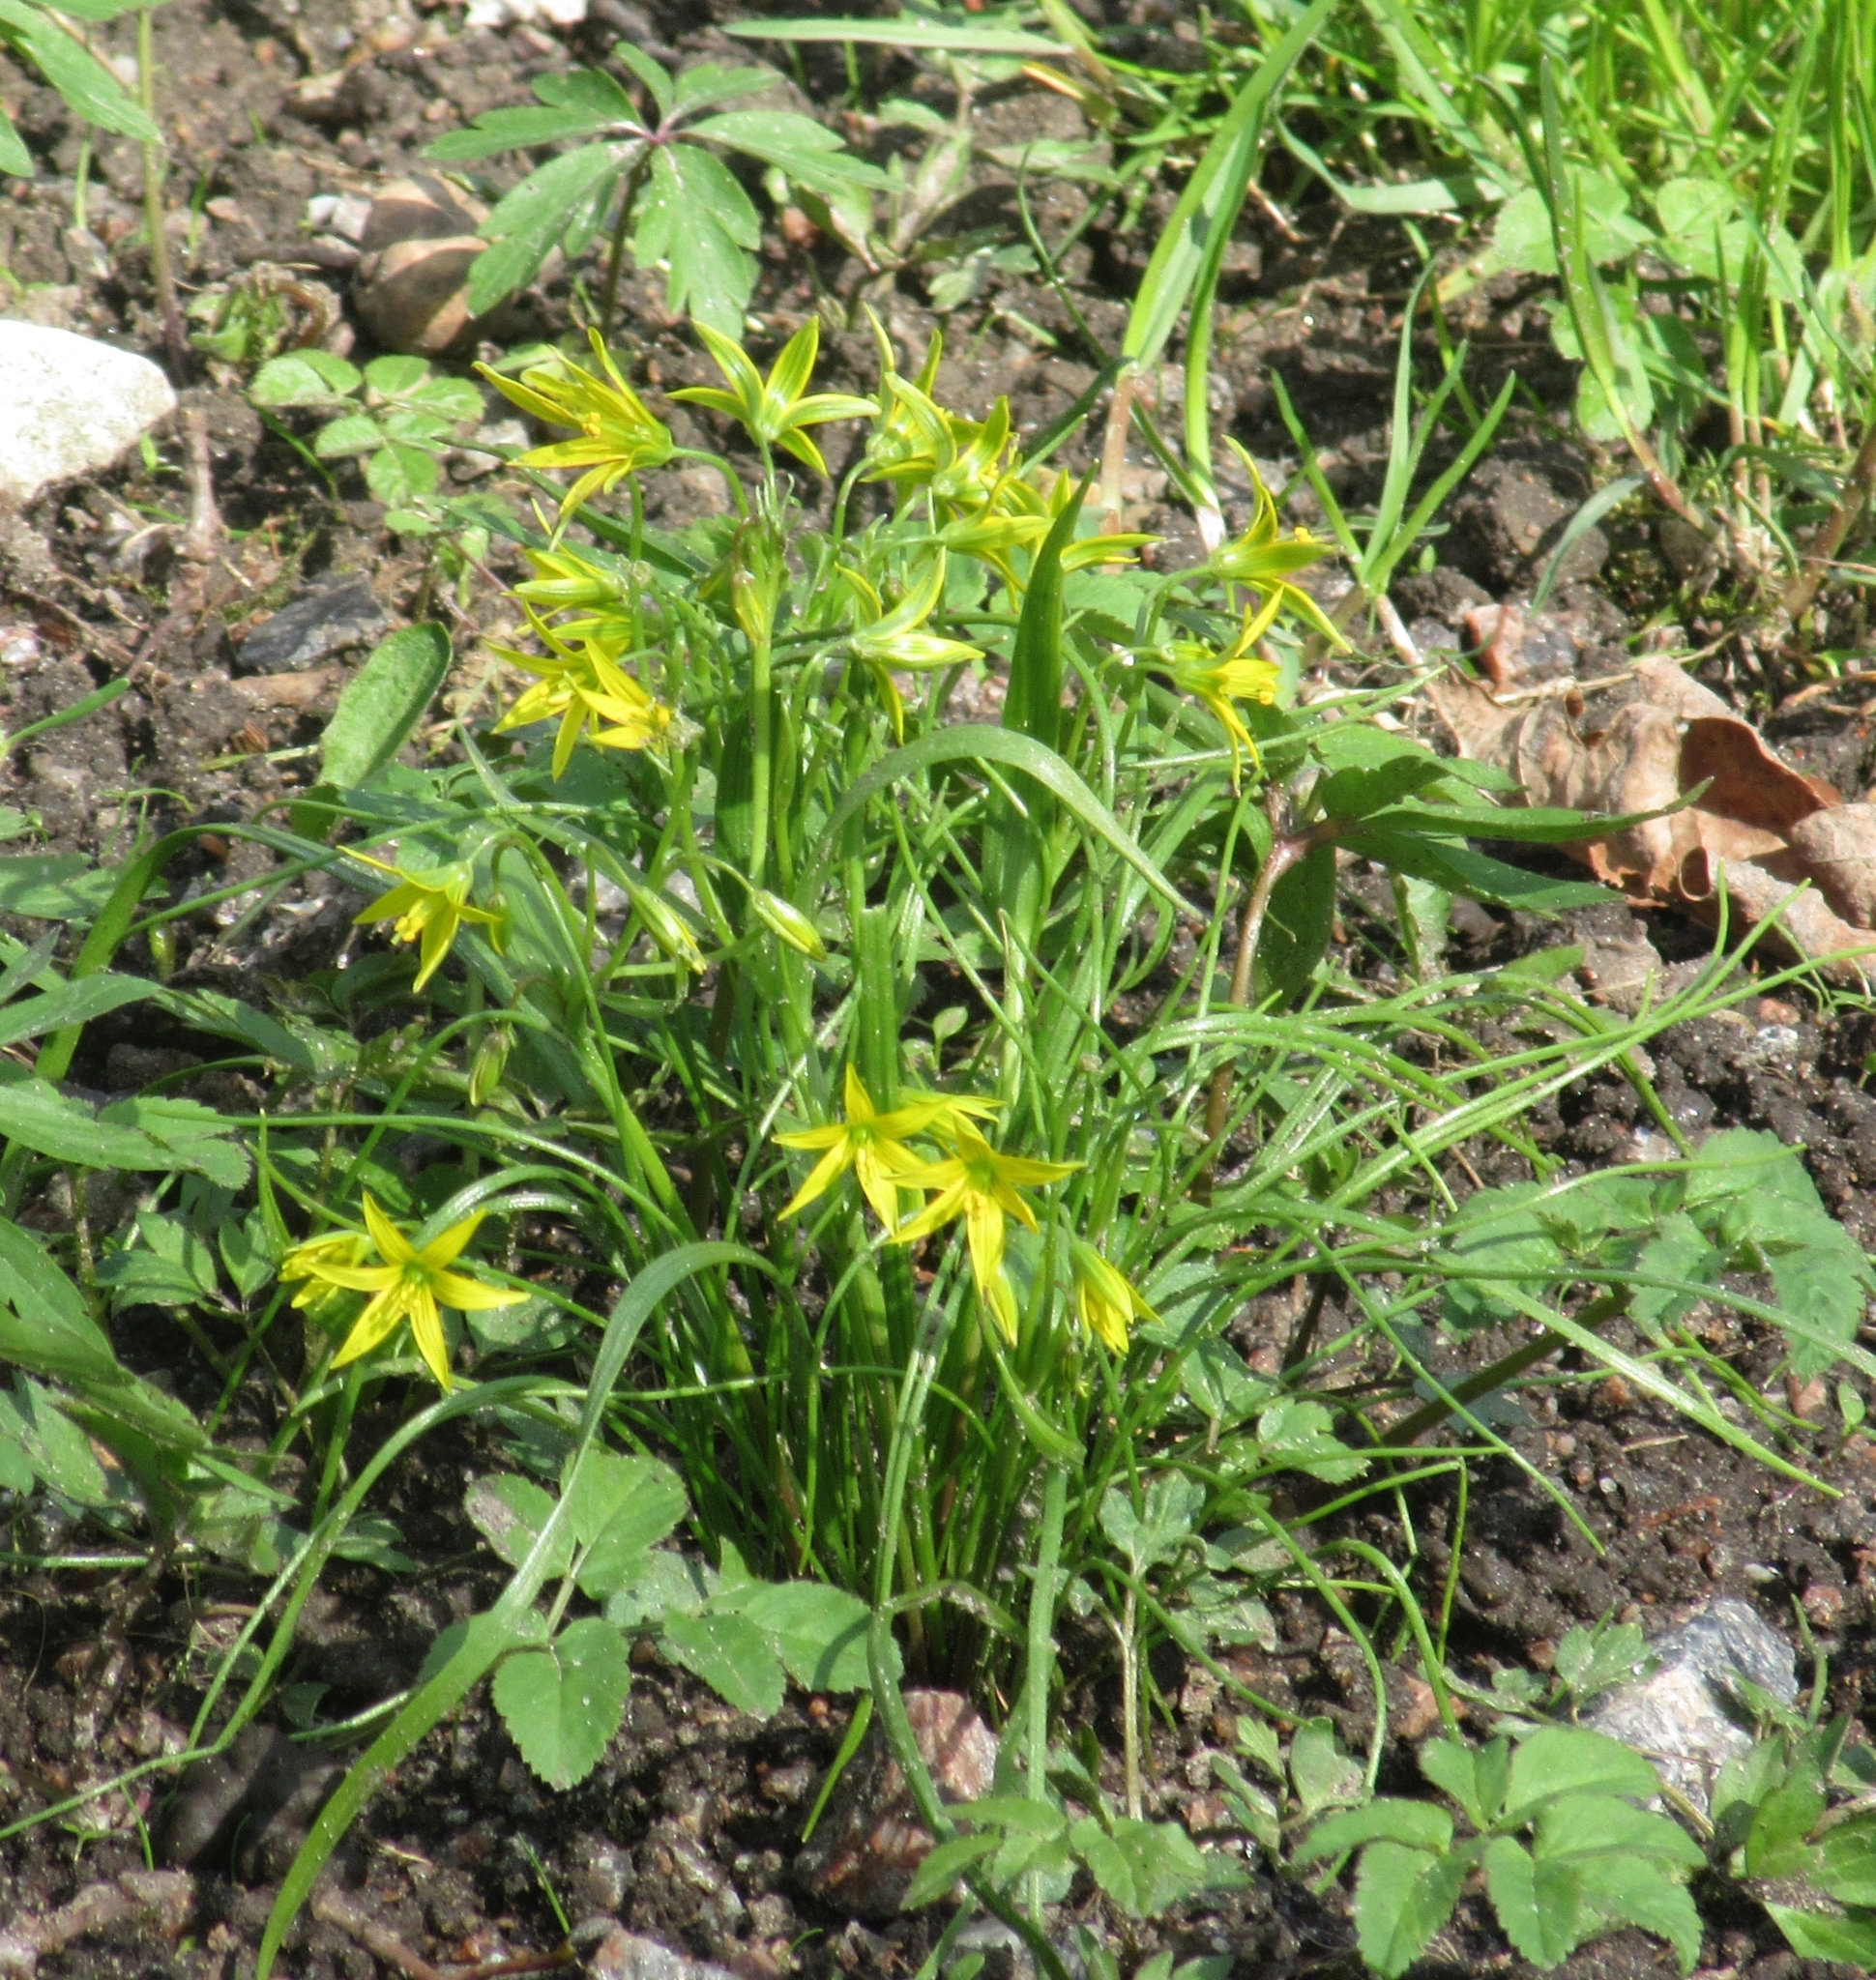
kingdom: Plantae
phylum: Tracheophyta
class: Liliopsida
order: Liliales
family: Liliaceae
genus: Gagea
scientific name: Gagea minima
